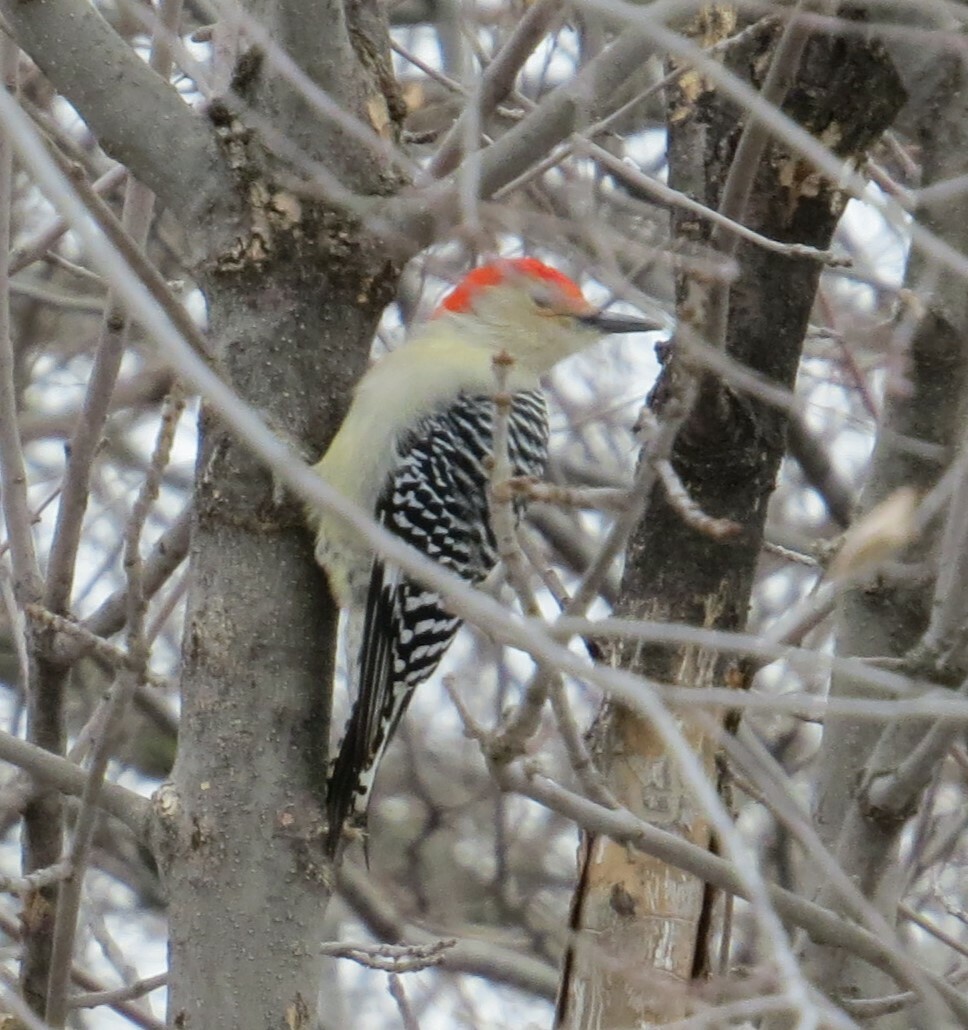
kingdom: Animalia
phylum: Chordata
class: Aves
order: Piciformes
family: Picidae
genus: Melanerpes
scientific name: Melanerpes carolinus
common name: Red-bellied woodpecker
